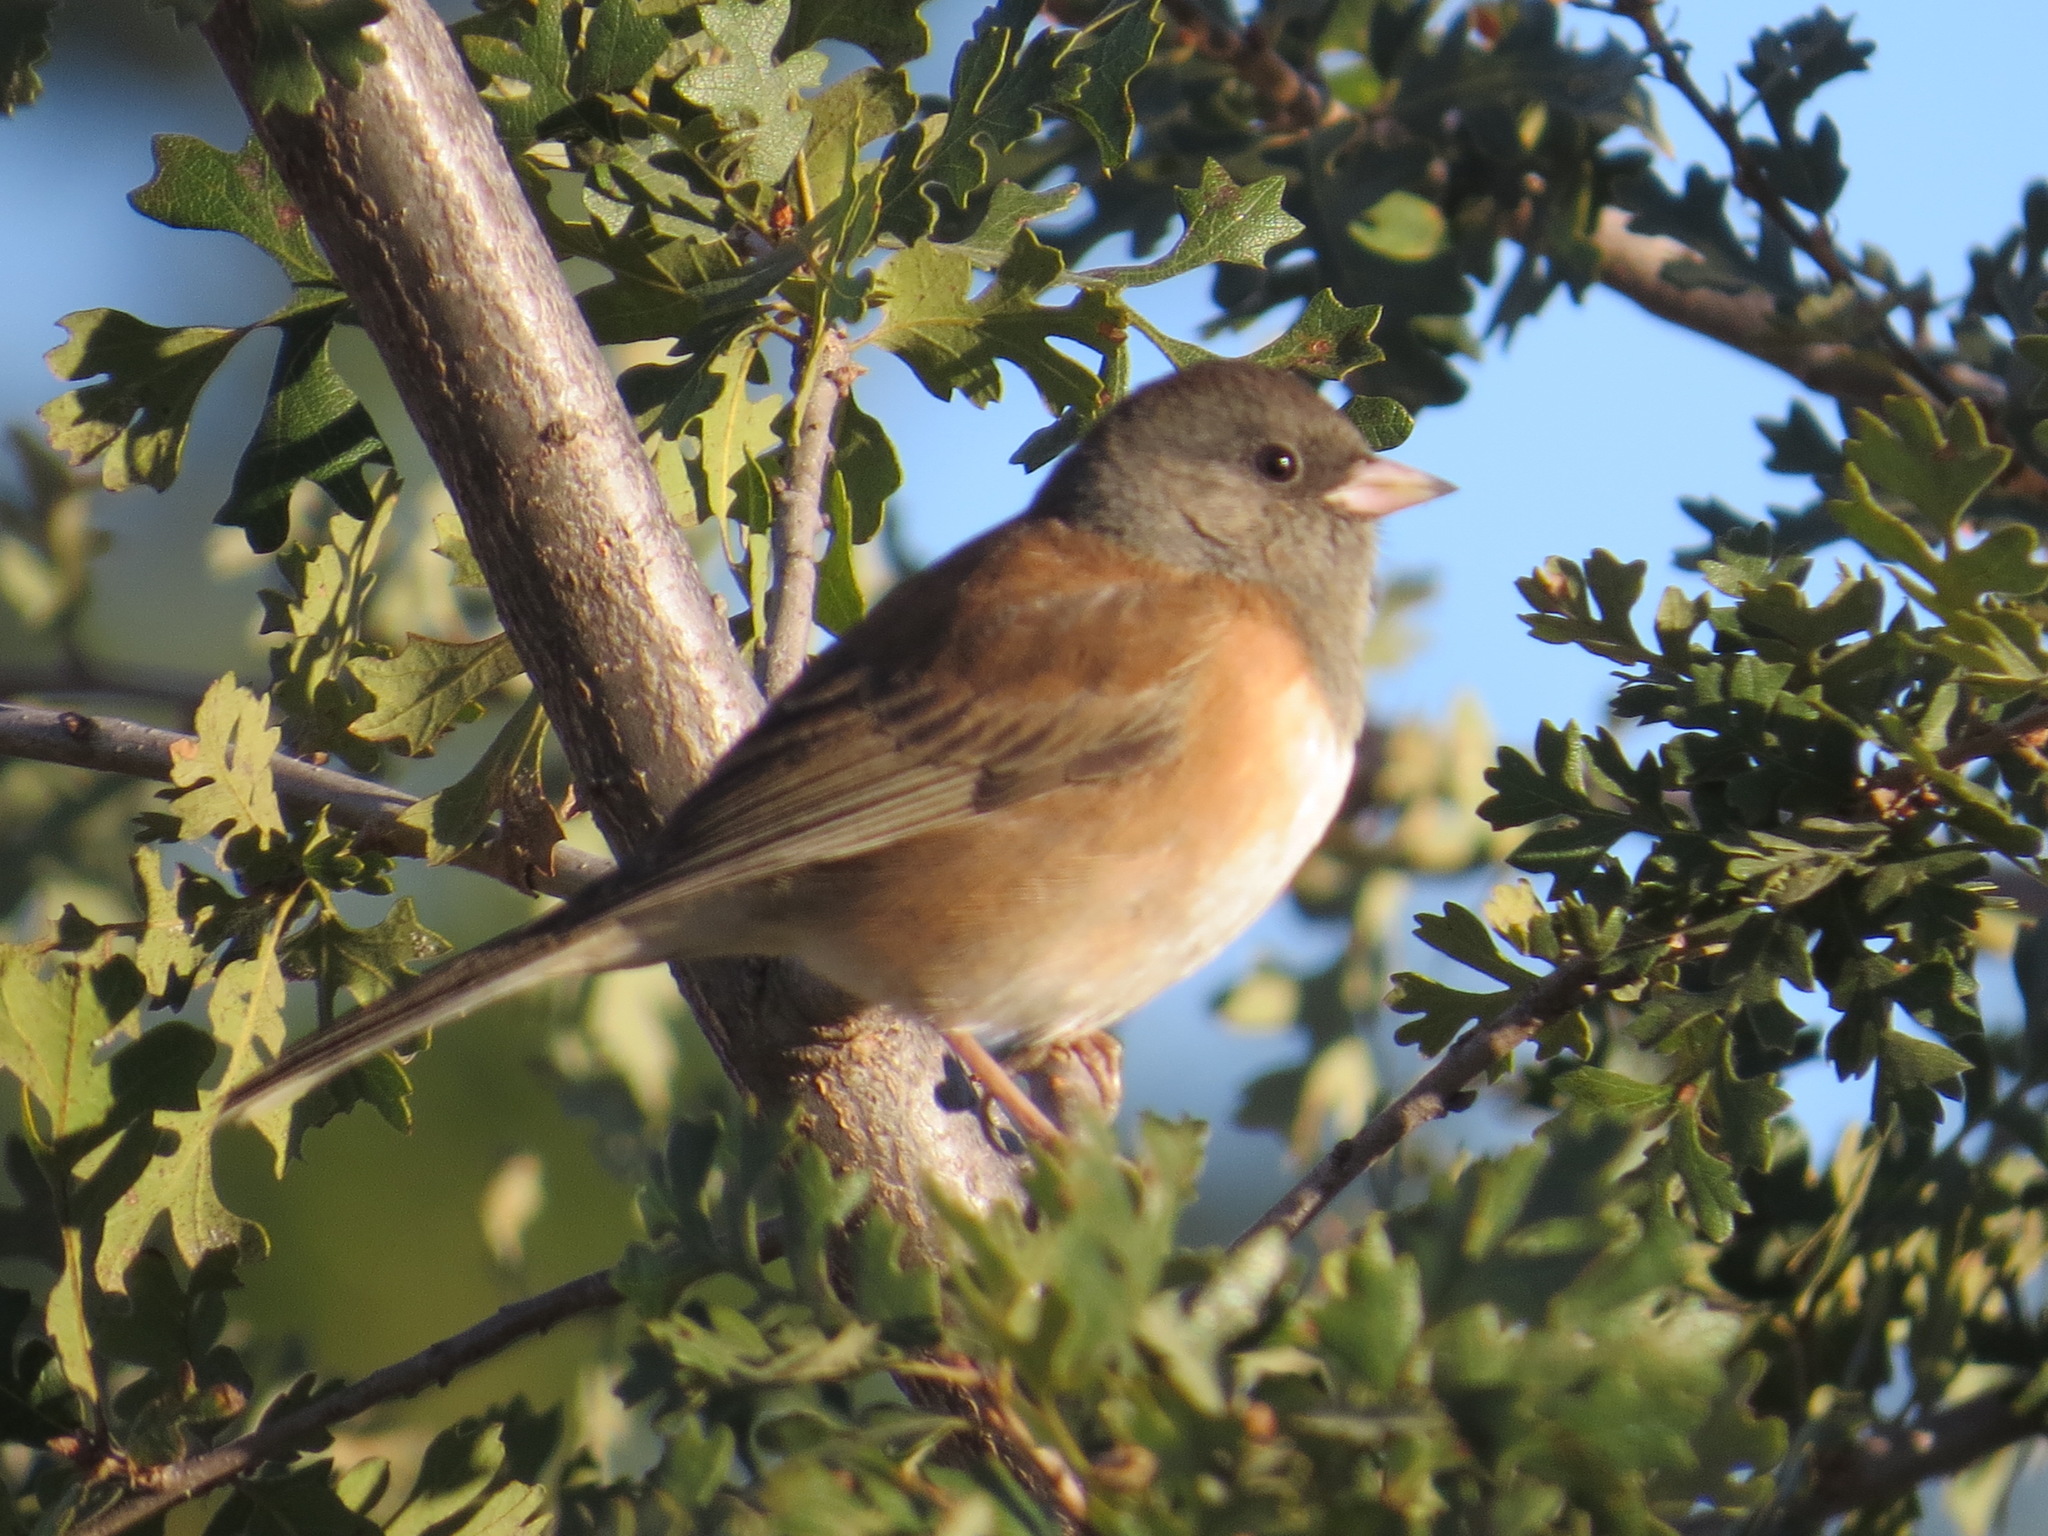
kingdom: Animalia
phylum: Chordata
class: Aves
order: Passeriformes
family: Passerellidae
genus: Junco
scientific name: Junco hyemalis
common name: Dark-eyed junco
